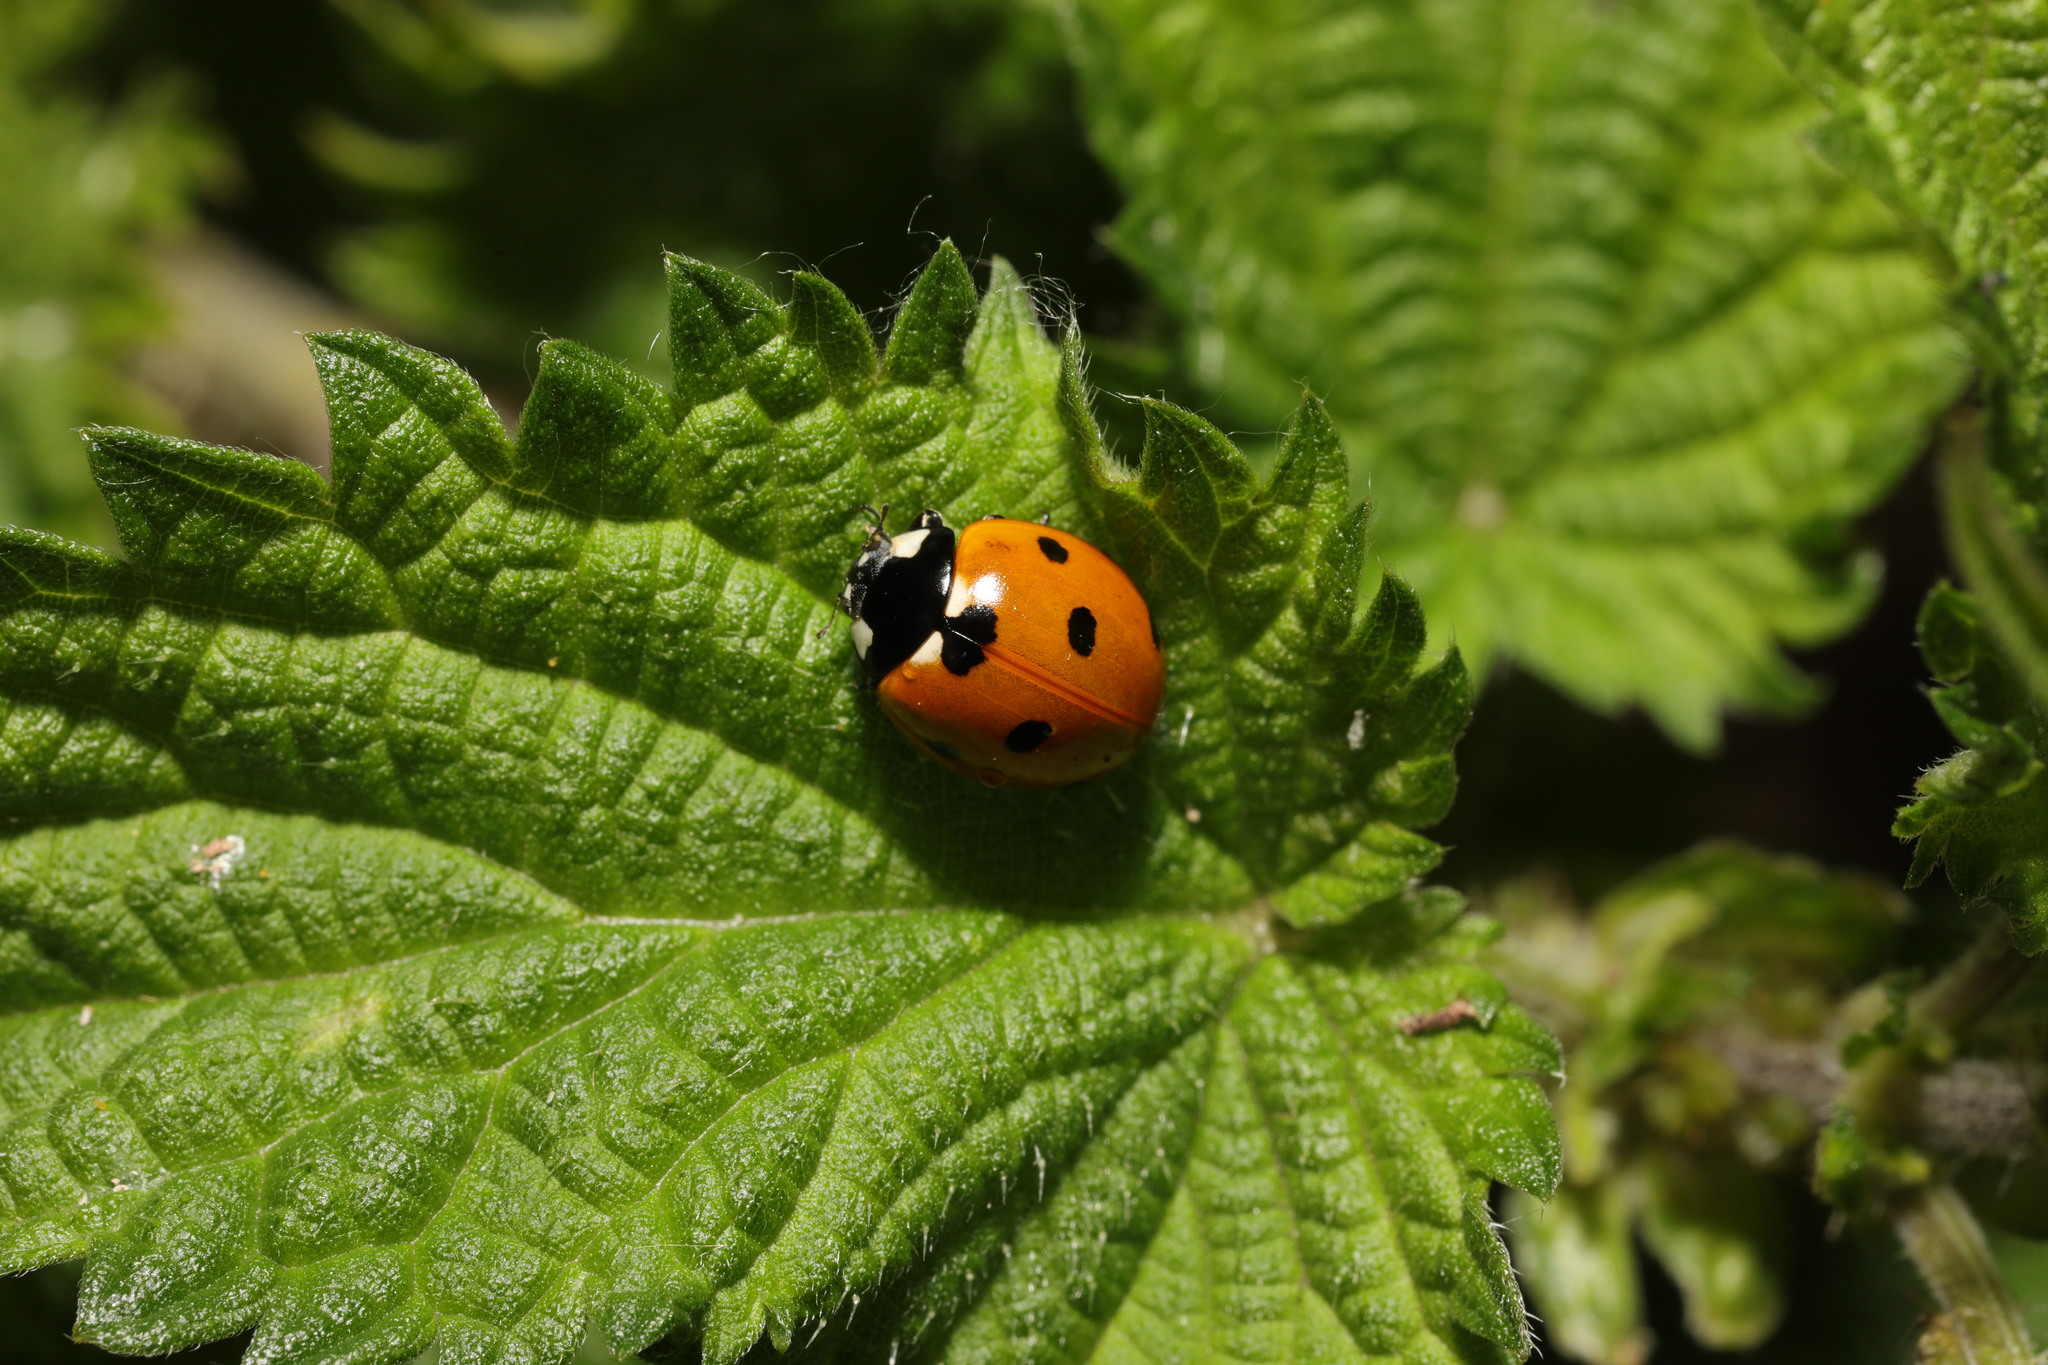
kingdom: Animalia
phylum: Arthropoda
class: Insecta
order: Coleoptera
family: Coccinellidae
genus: Coccinella
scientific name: Coccinella septempunctata
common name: Sevenspotted lady beetle
